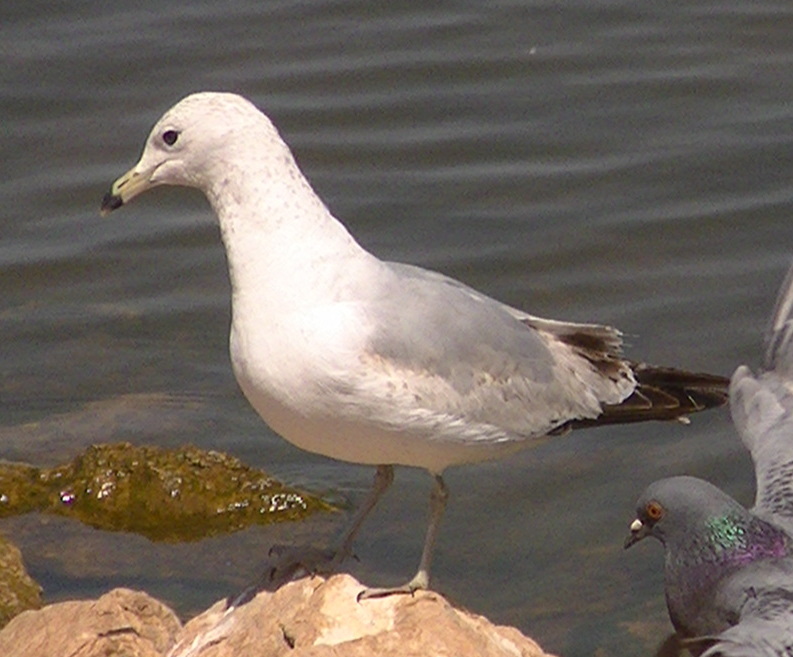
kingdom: Animalia
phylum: Chordata
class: Aves
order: Charadriiformes
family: Laridae
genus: Larus
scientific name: Larus delawarensis
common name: Ring-billed gull
